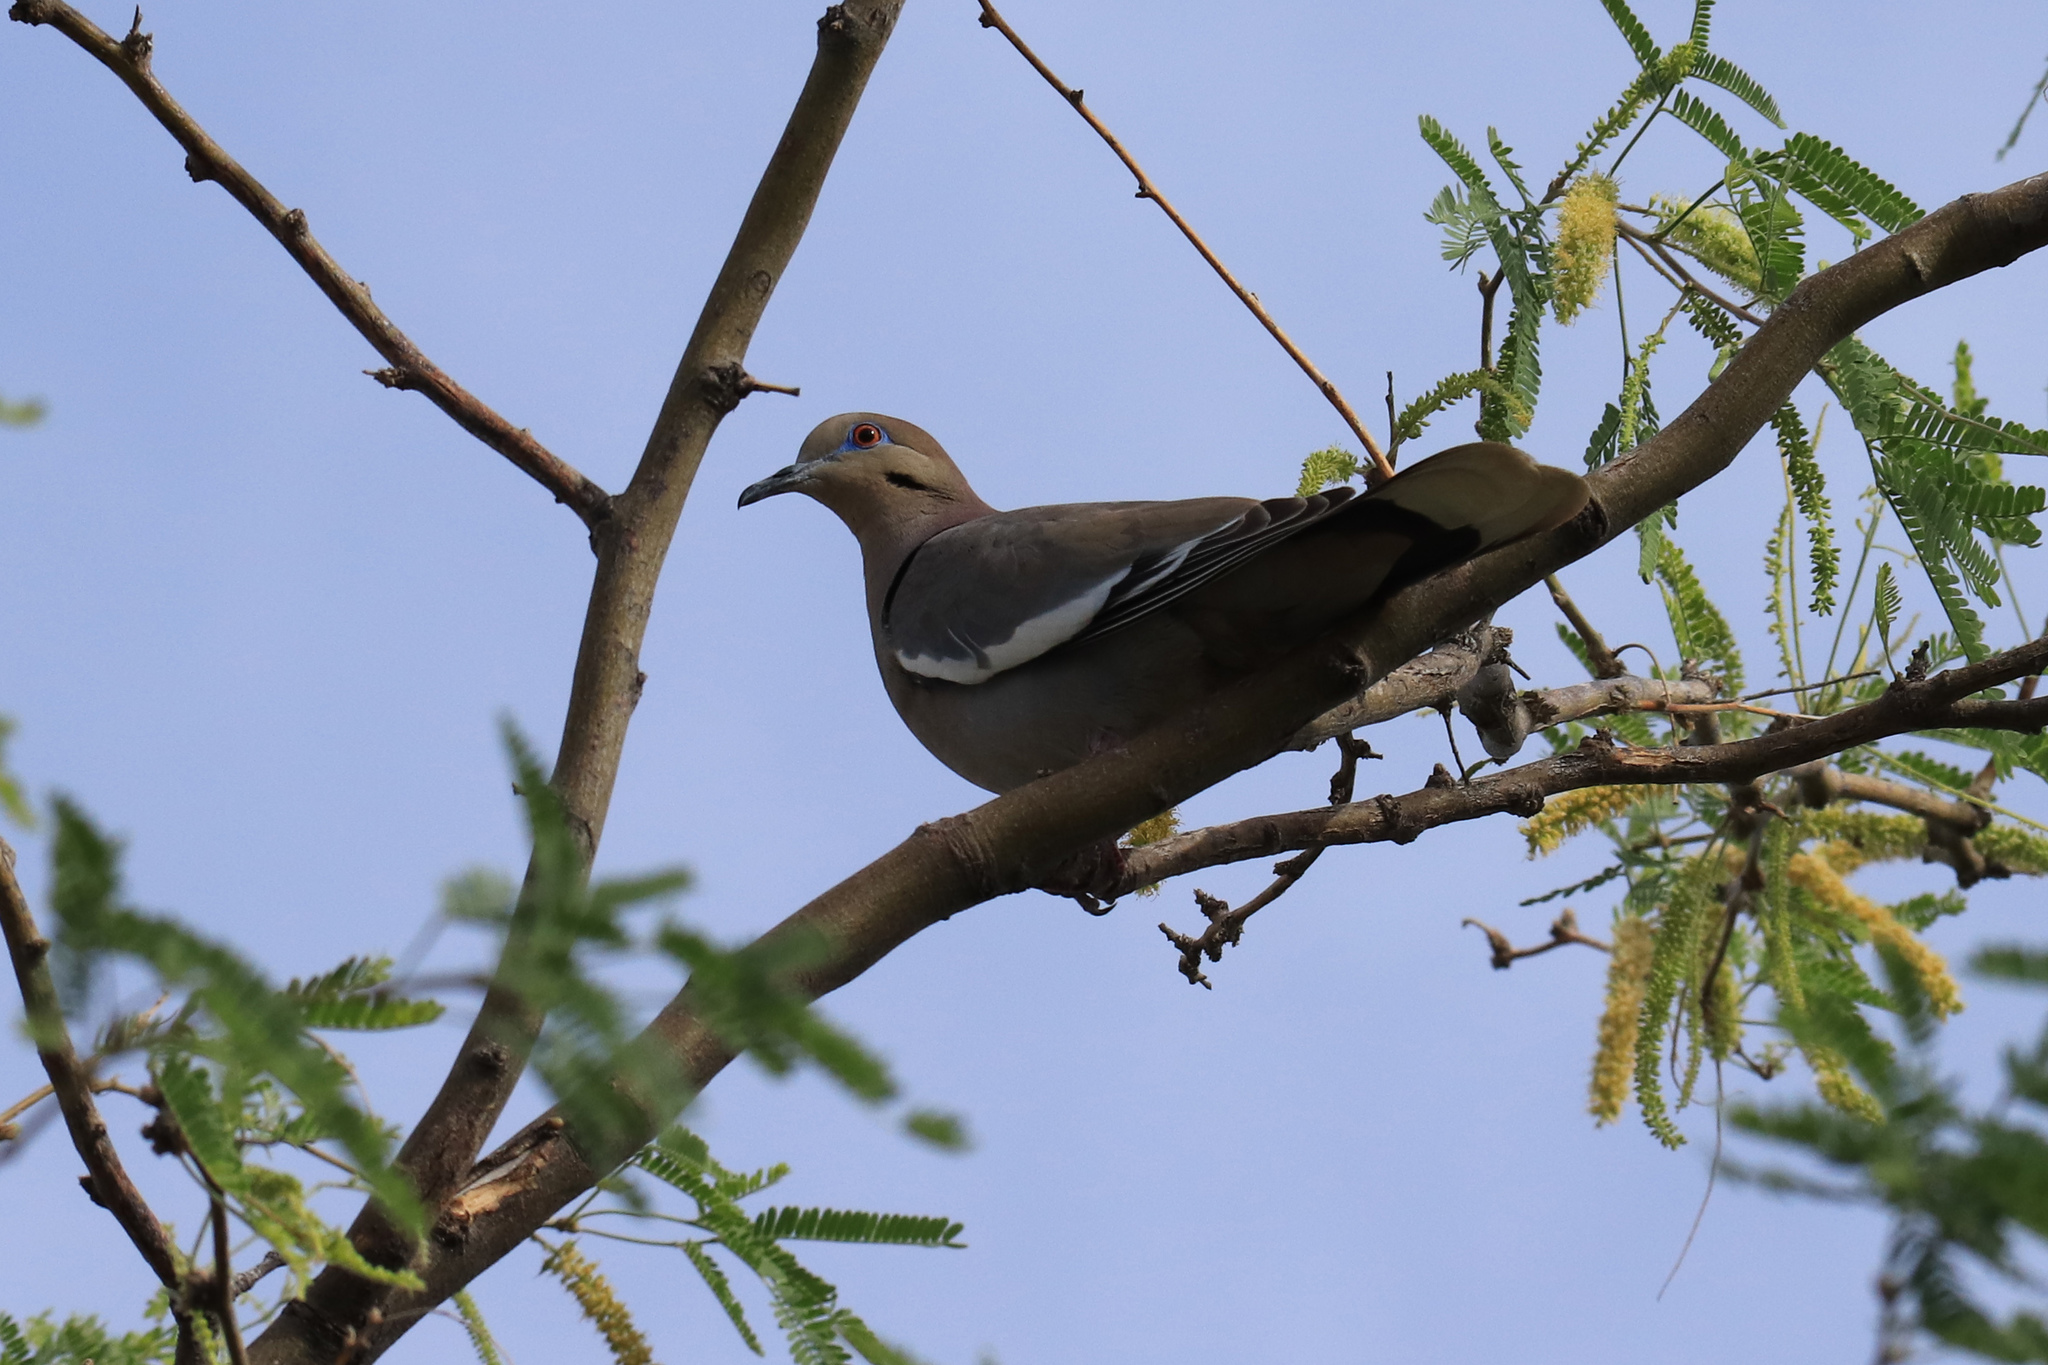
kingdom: Animalia
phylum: Chordata
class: Aves
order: Columbiformes
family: Columbidae
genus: Zenaida
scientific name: Zenaida asiatica
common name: White-winged dove
